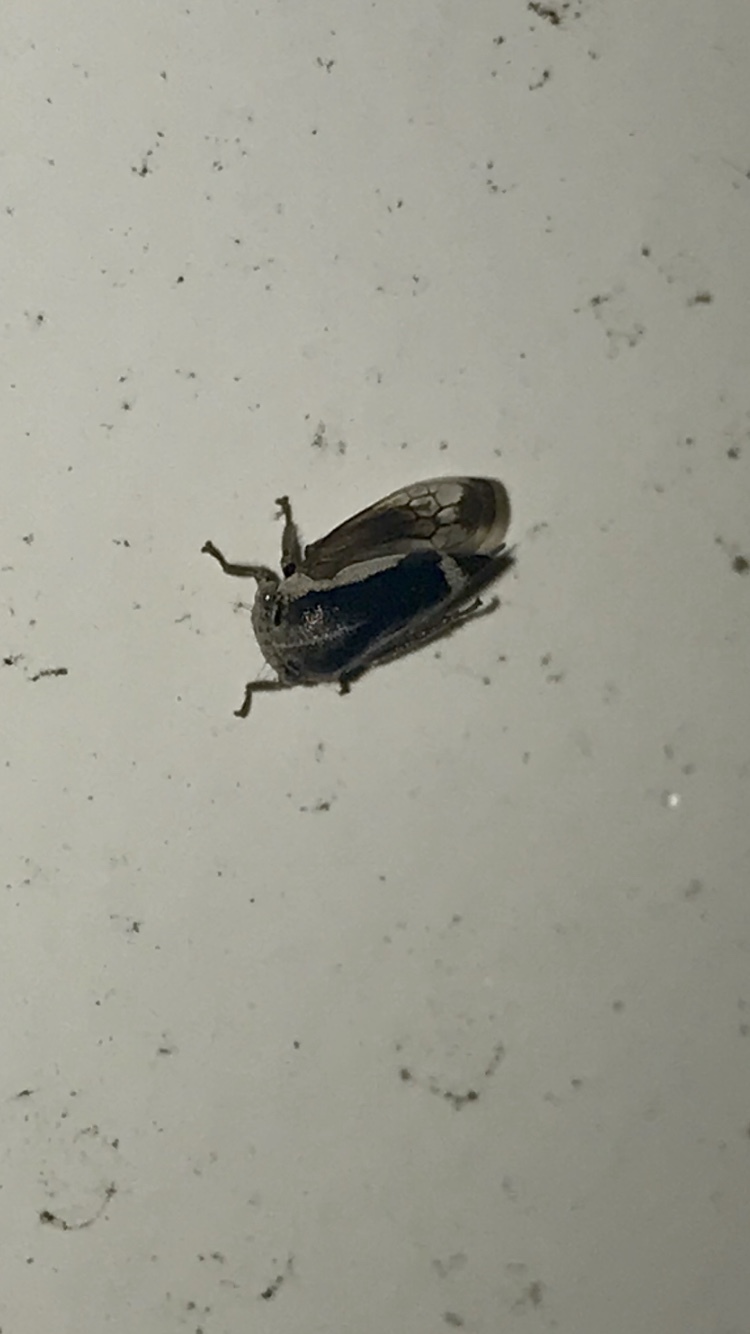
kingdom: Animalia
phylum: Arthropoda
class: Insecta
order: Hemiptera
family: Membracidae
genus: Ophiderma
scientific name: Ophiderma flavicephala
